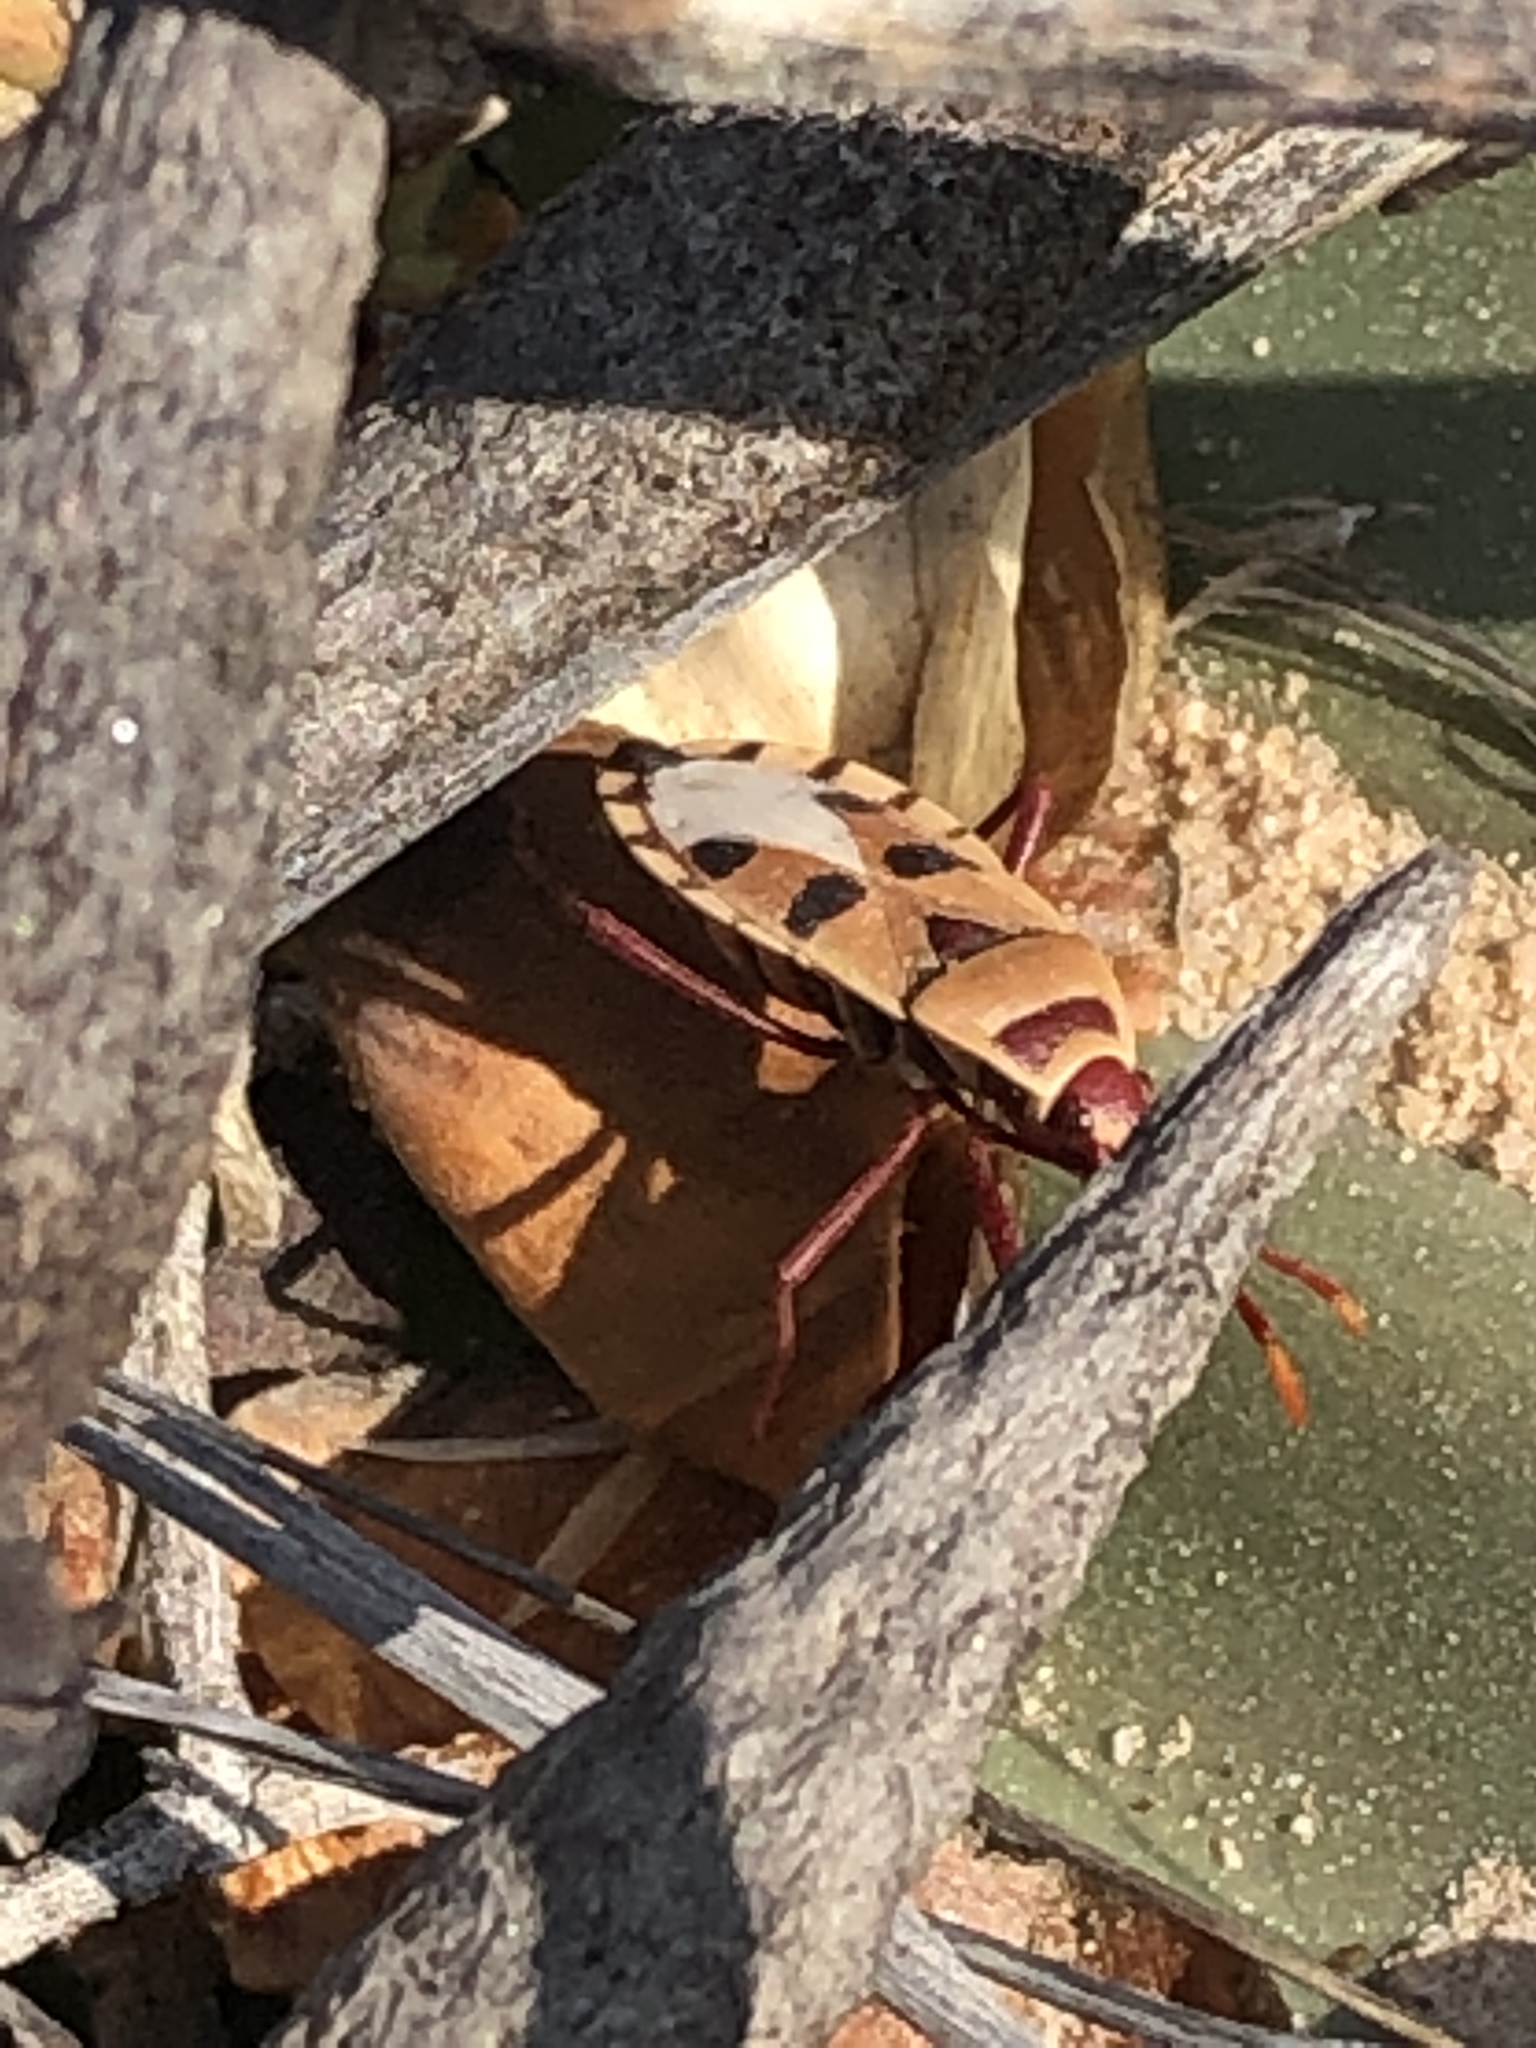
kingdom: Animalia
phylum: Arthropoda
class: Insecta
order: Hemiptera
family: Pyrrhocoridae
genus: Probergrothius
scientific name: Probergrothius angolensis
